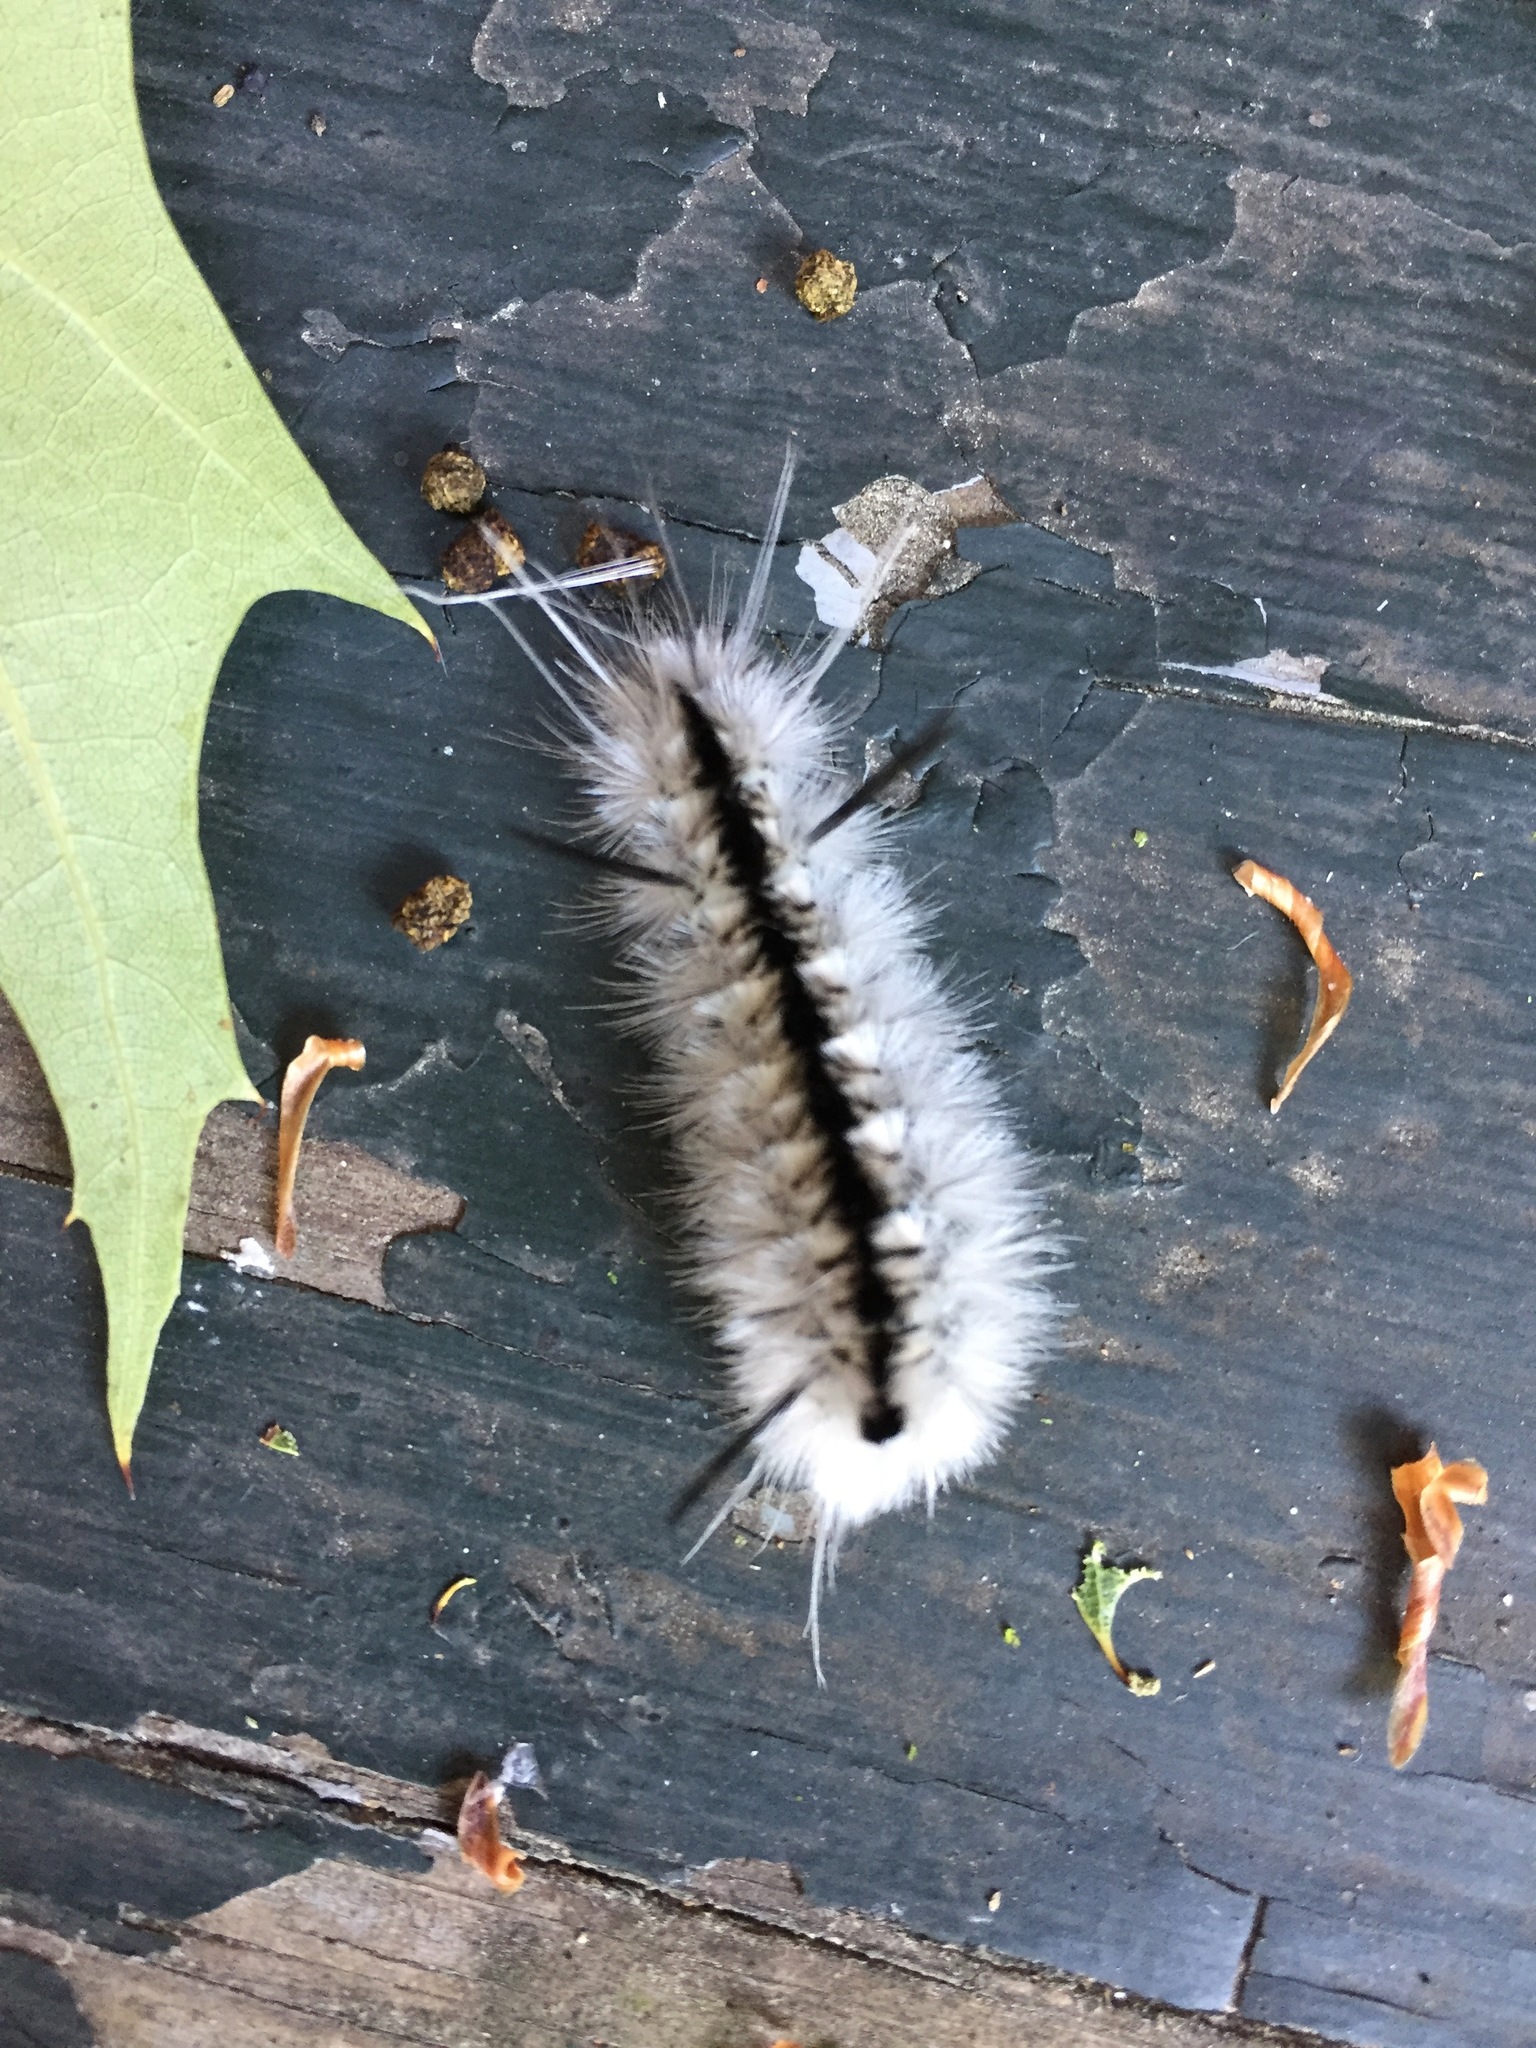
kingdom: Animalia
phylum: Arthropoda
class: Insecta
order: Lepidoptera
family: Erebidae
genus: Lophocampa
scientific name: Lophocampa caryae
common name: Hickory tussock moth
